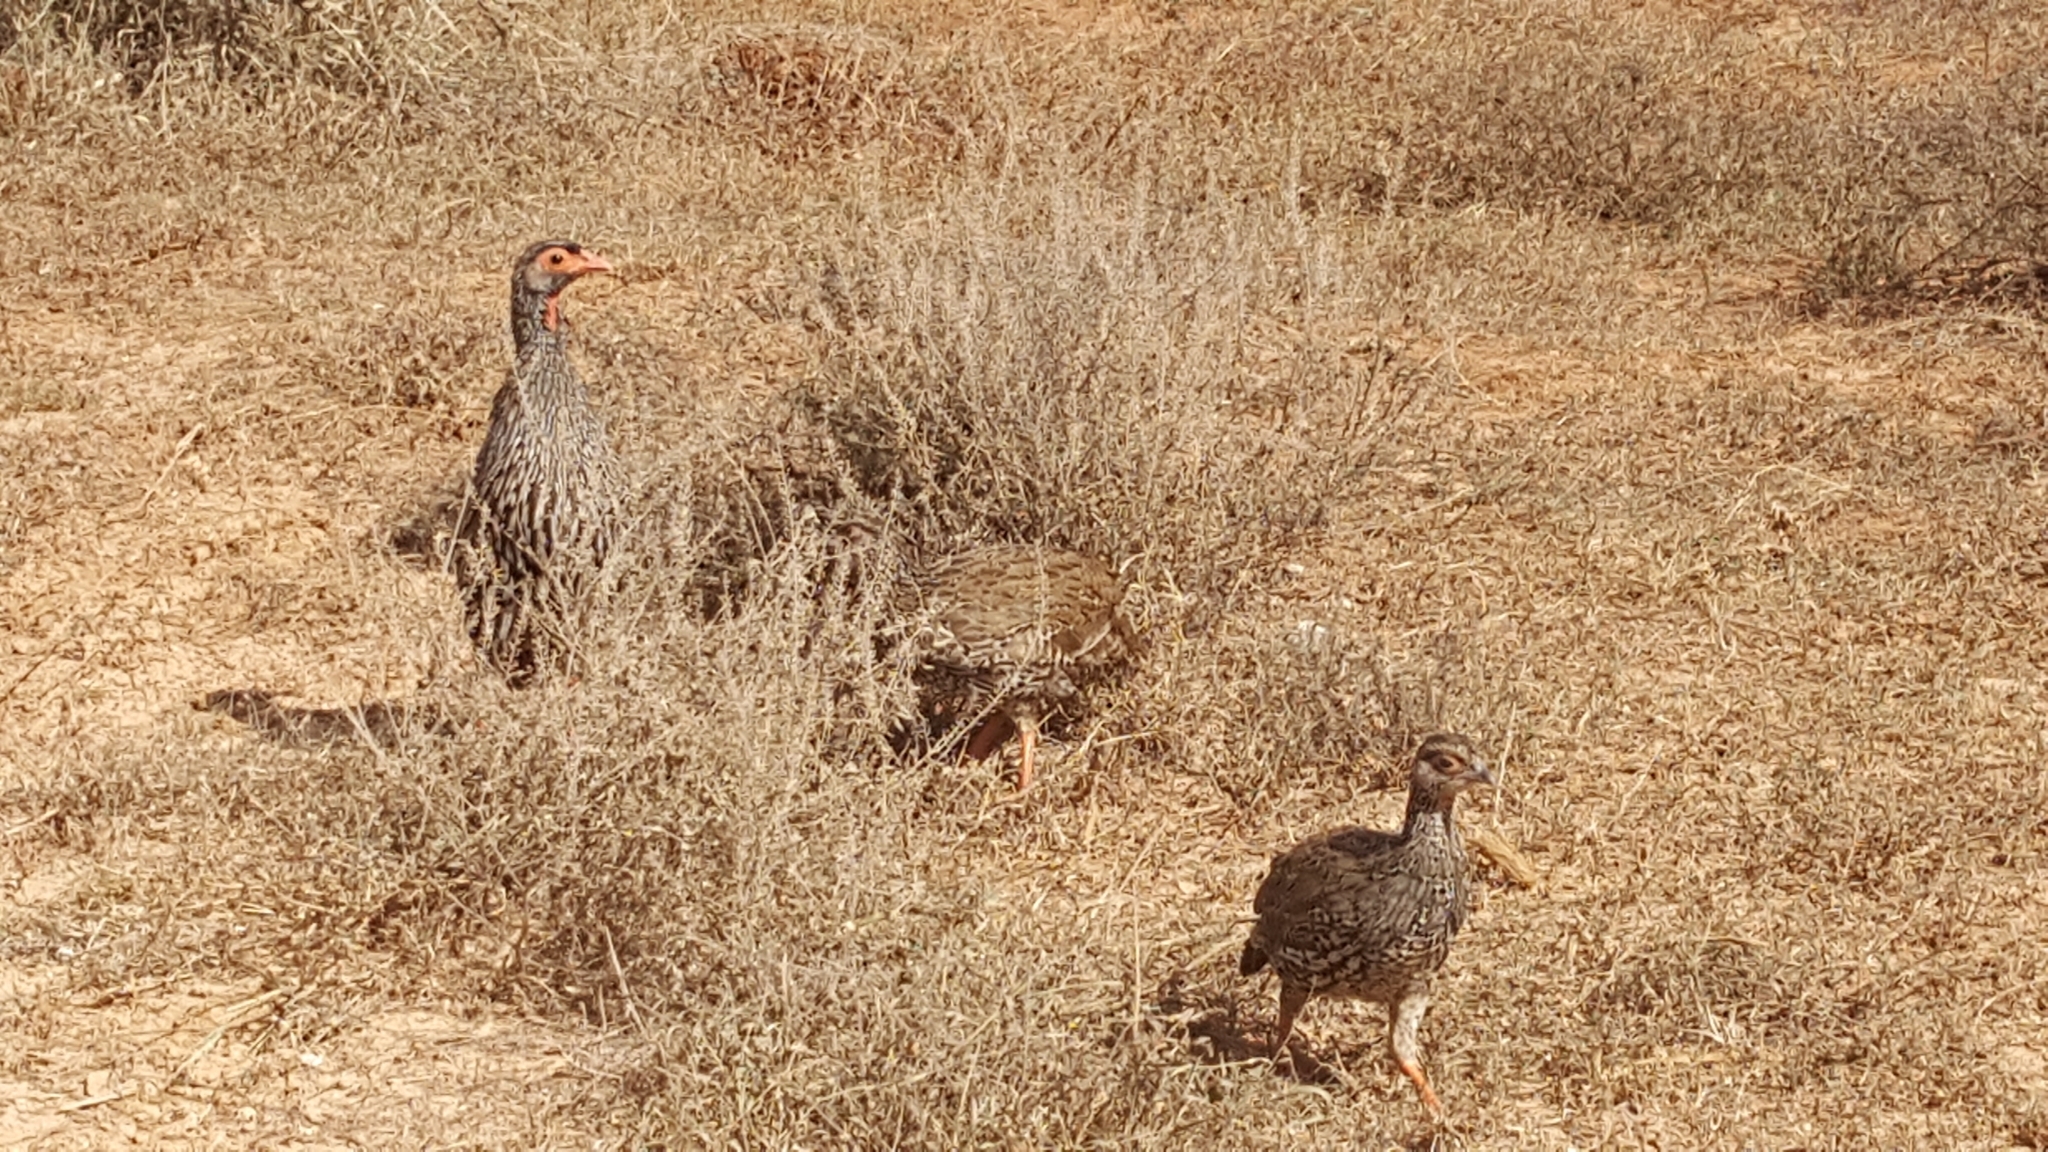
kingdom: Animalia
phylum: Chordata
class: Aves
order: Galliformes
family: Phasianidae
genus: Pternistis
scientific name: Pternistis afer
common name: Red-necked spurfowl
